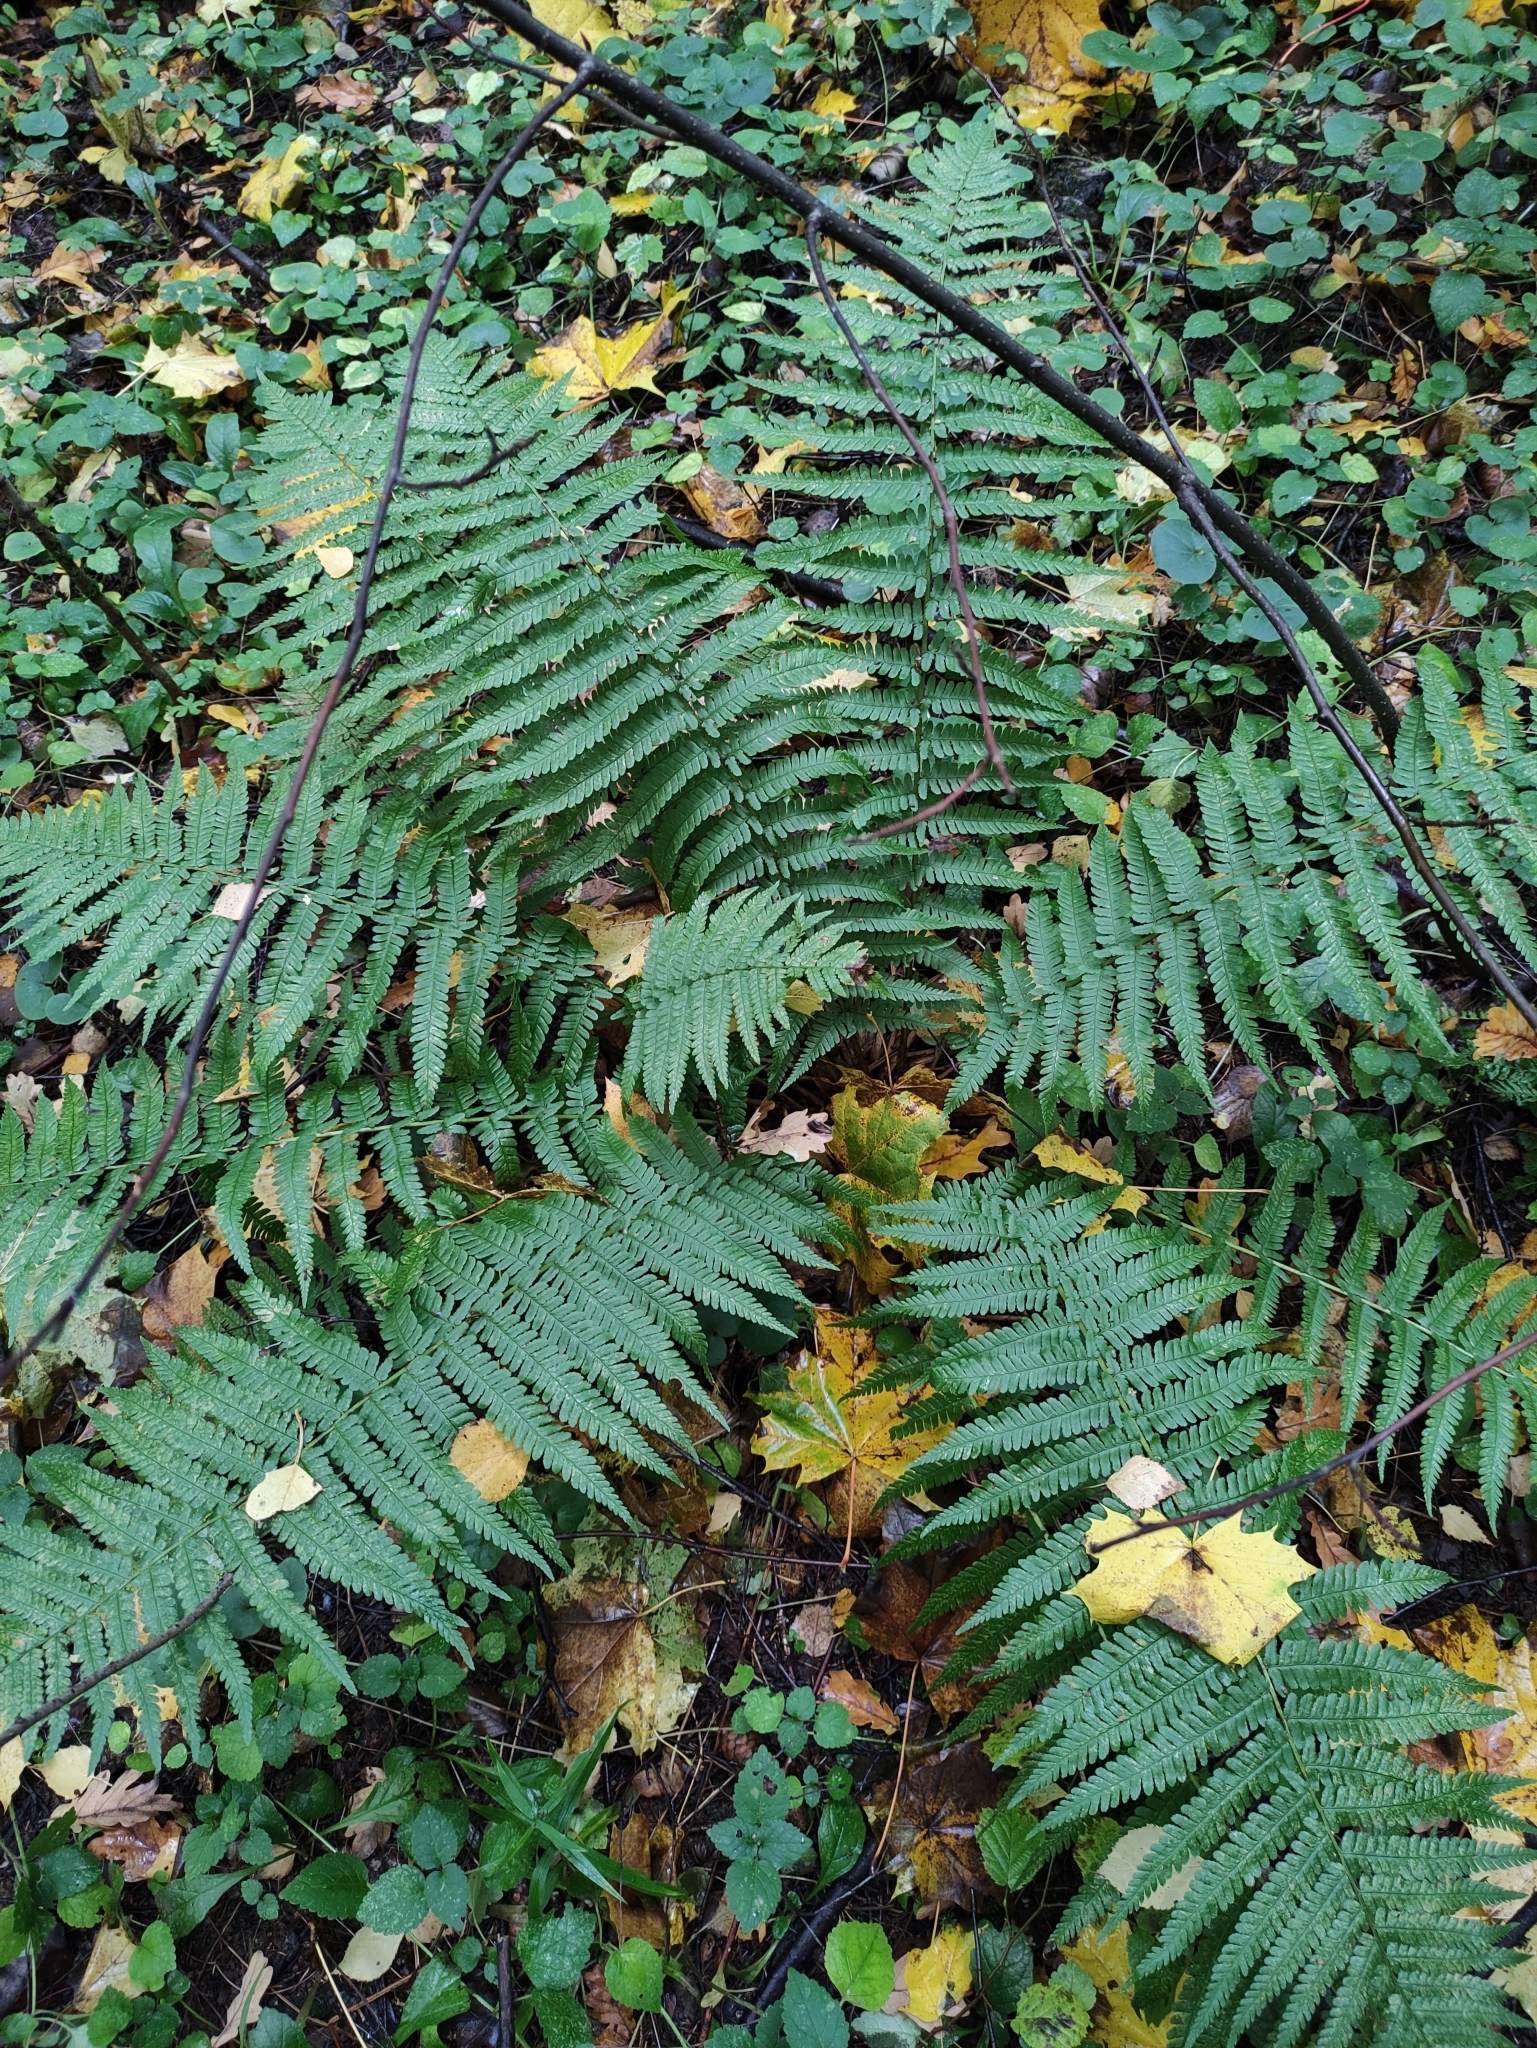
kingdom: Plantae
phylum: Tracheophyta
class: Polypodiopsida
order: Polypodiales
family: Dryopteridaceae
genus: Dryopteris
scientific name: Dryopteris filix-mas
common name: Male fern
